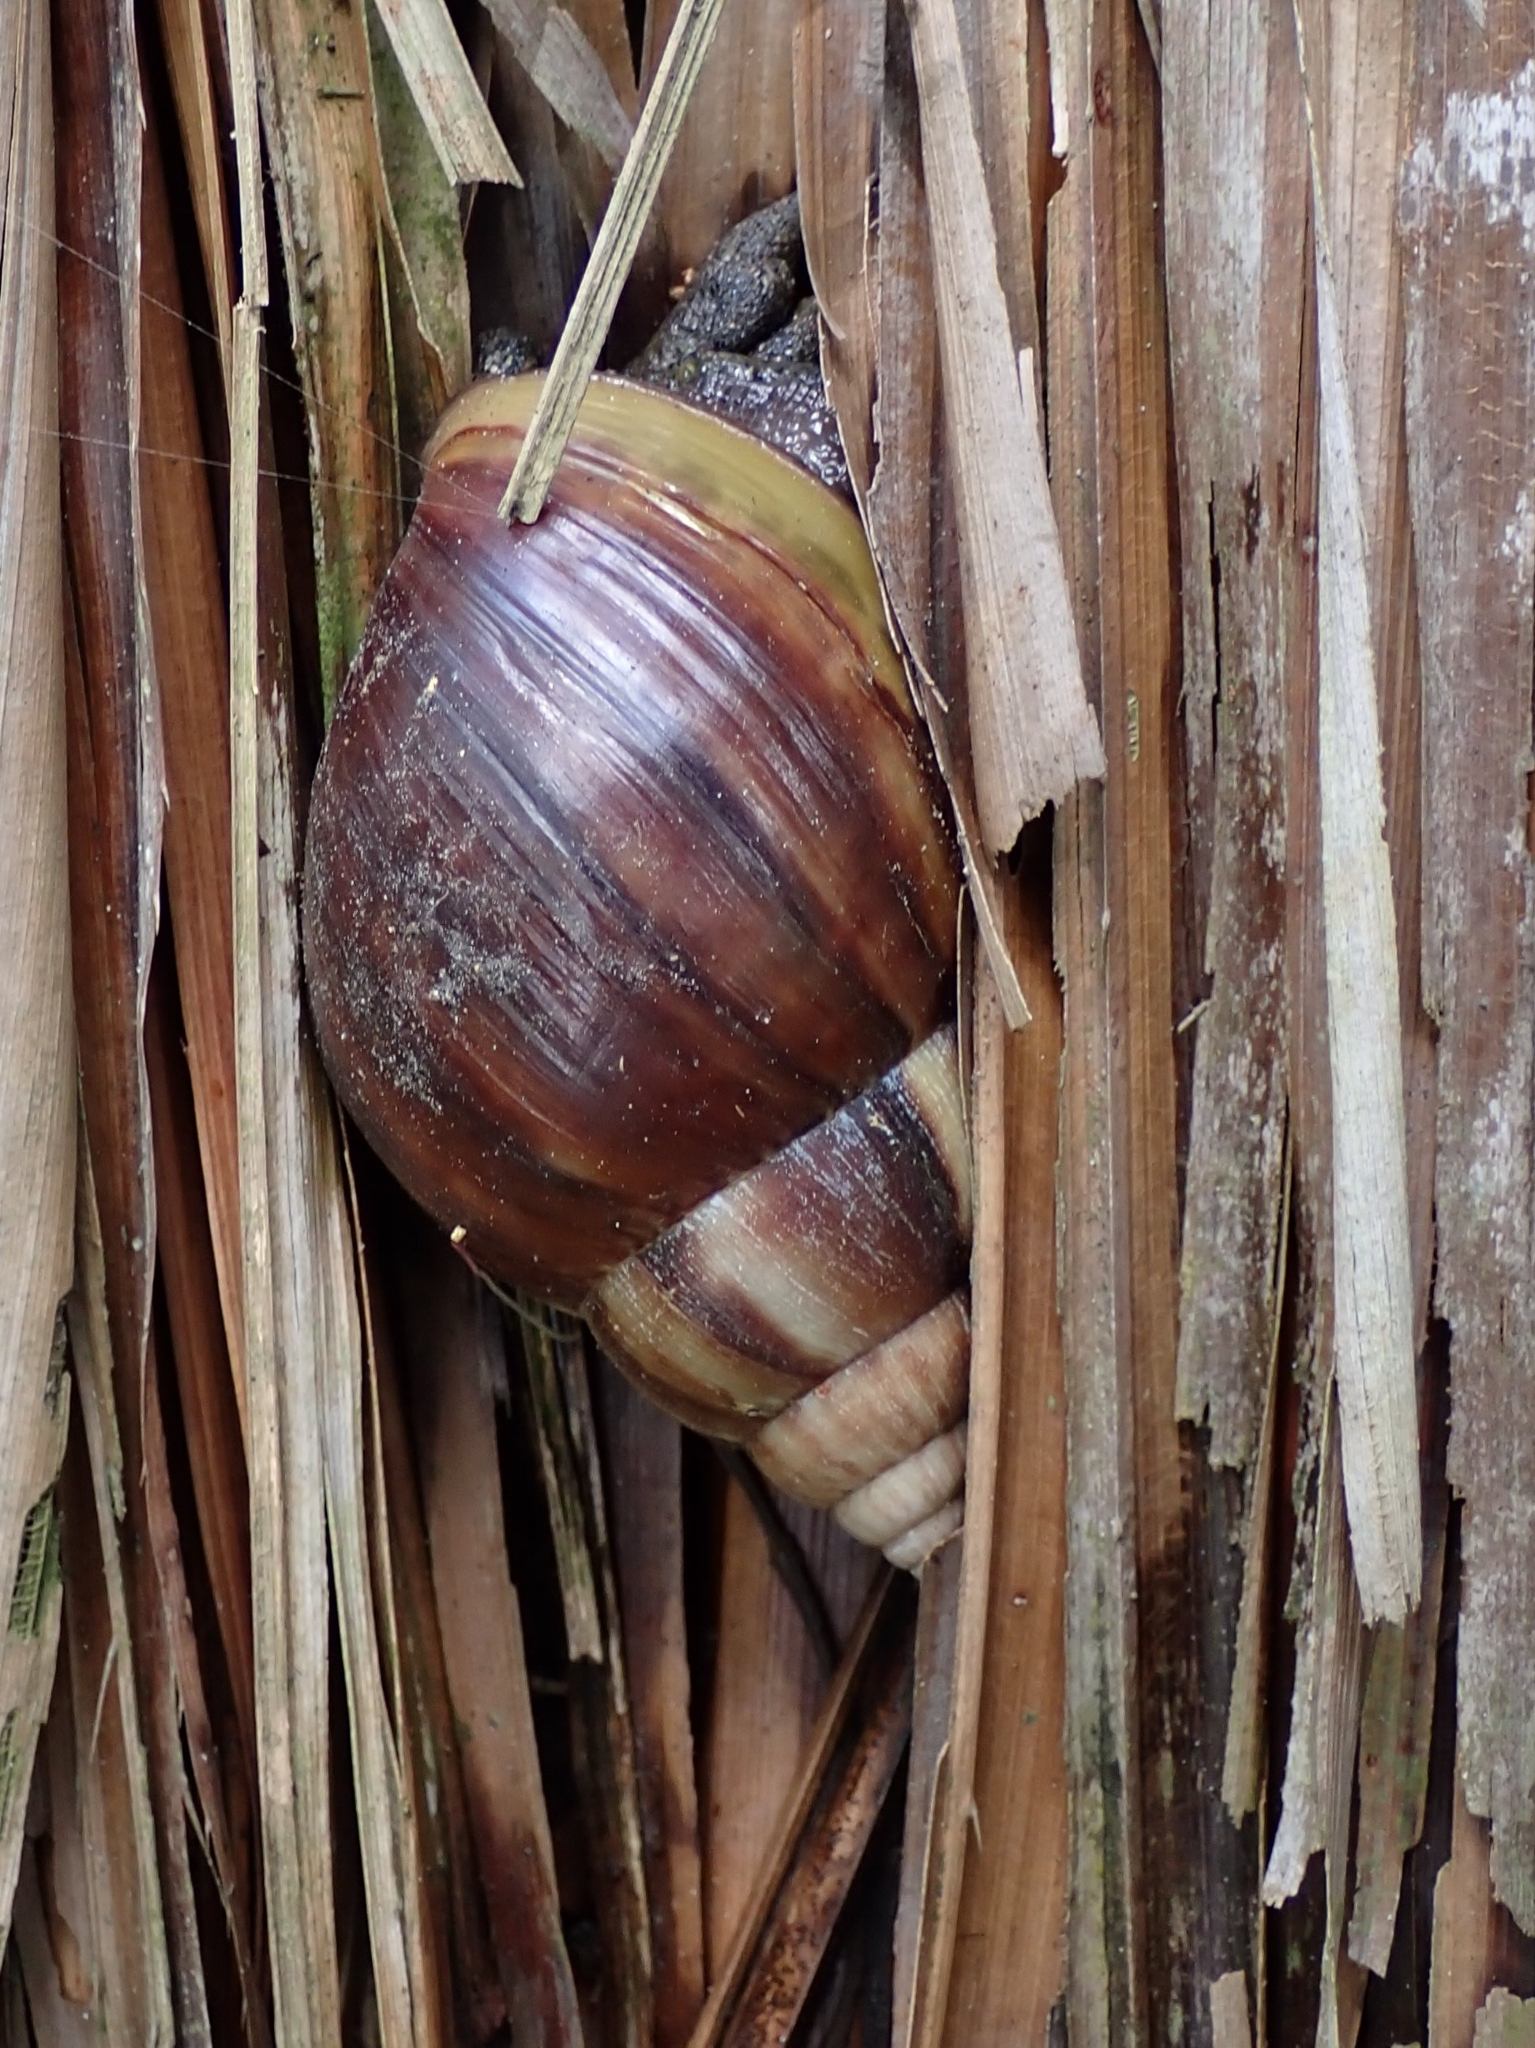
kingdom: Animalia
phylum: Mollusca
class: Gastropoda
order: Stylommatophora
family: Achatinidae
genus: Lissachatina
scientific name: Lissachatina fulica
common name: Giant african snail
